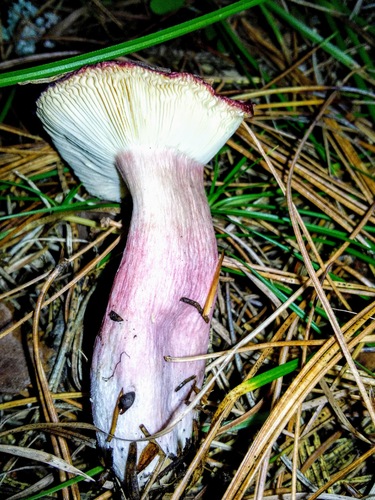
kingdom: Fungi
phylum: Basidiomycota
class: Agaricomycetes
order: Russulales
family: Russulaceae
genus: Russula
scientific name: Russula
